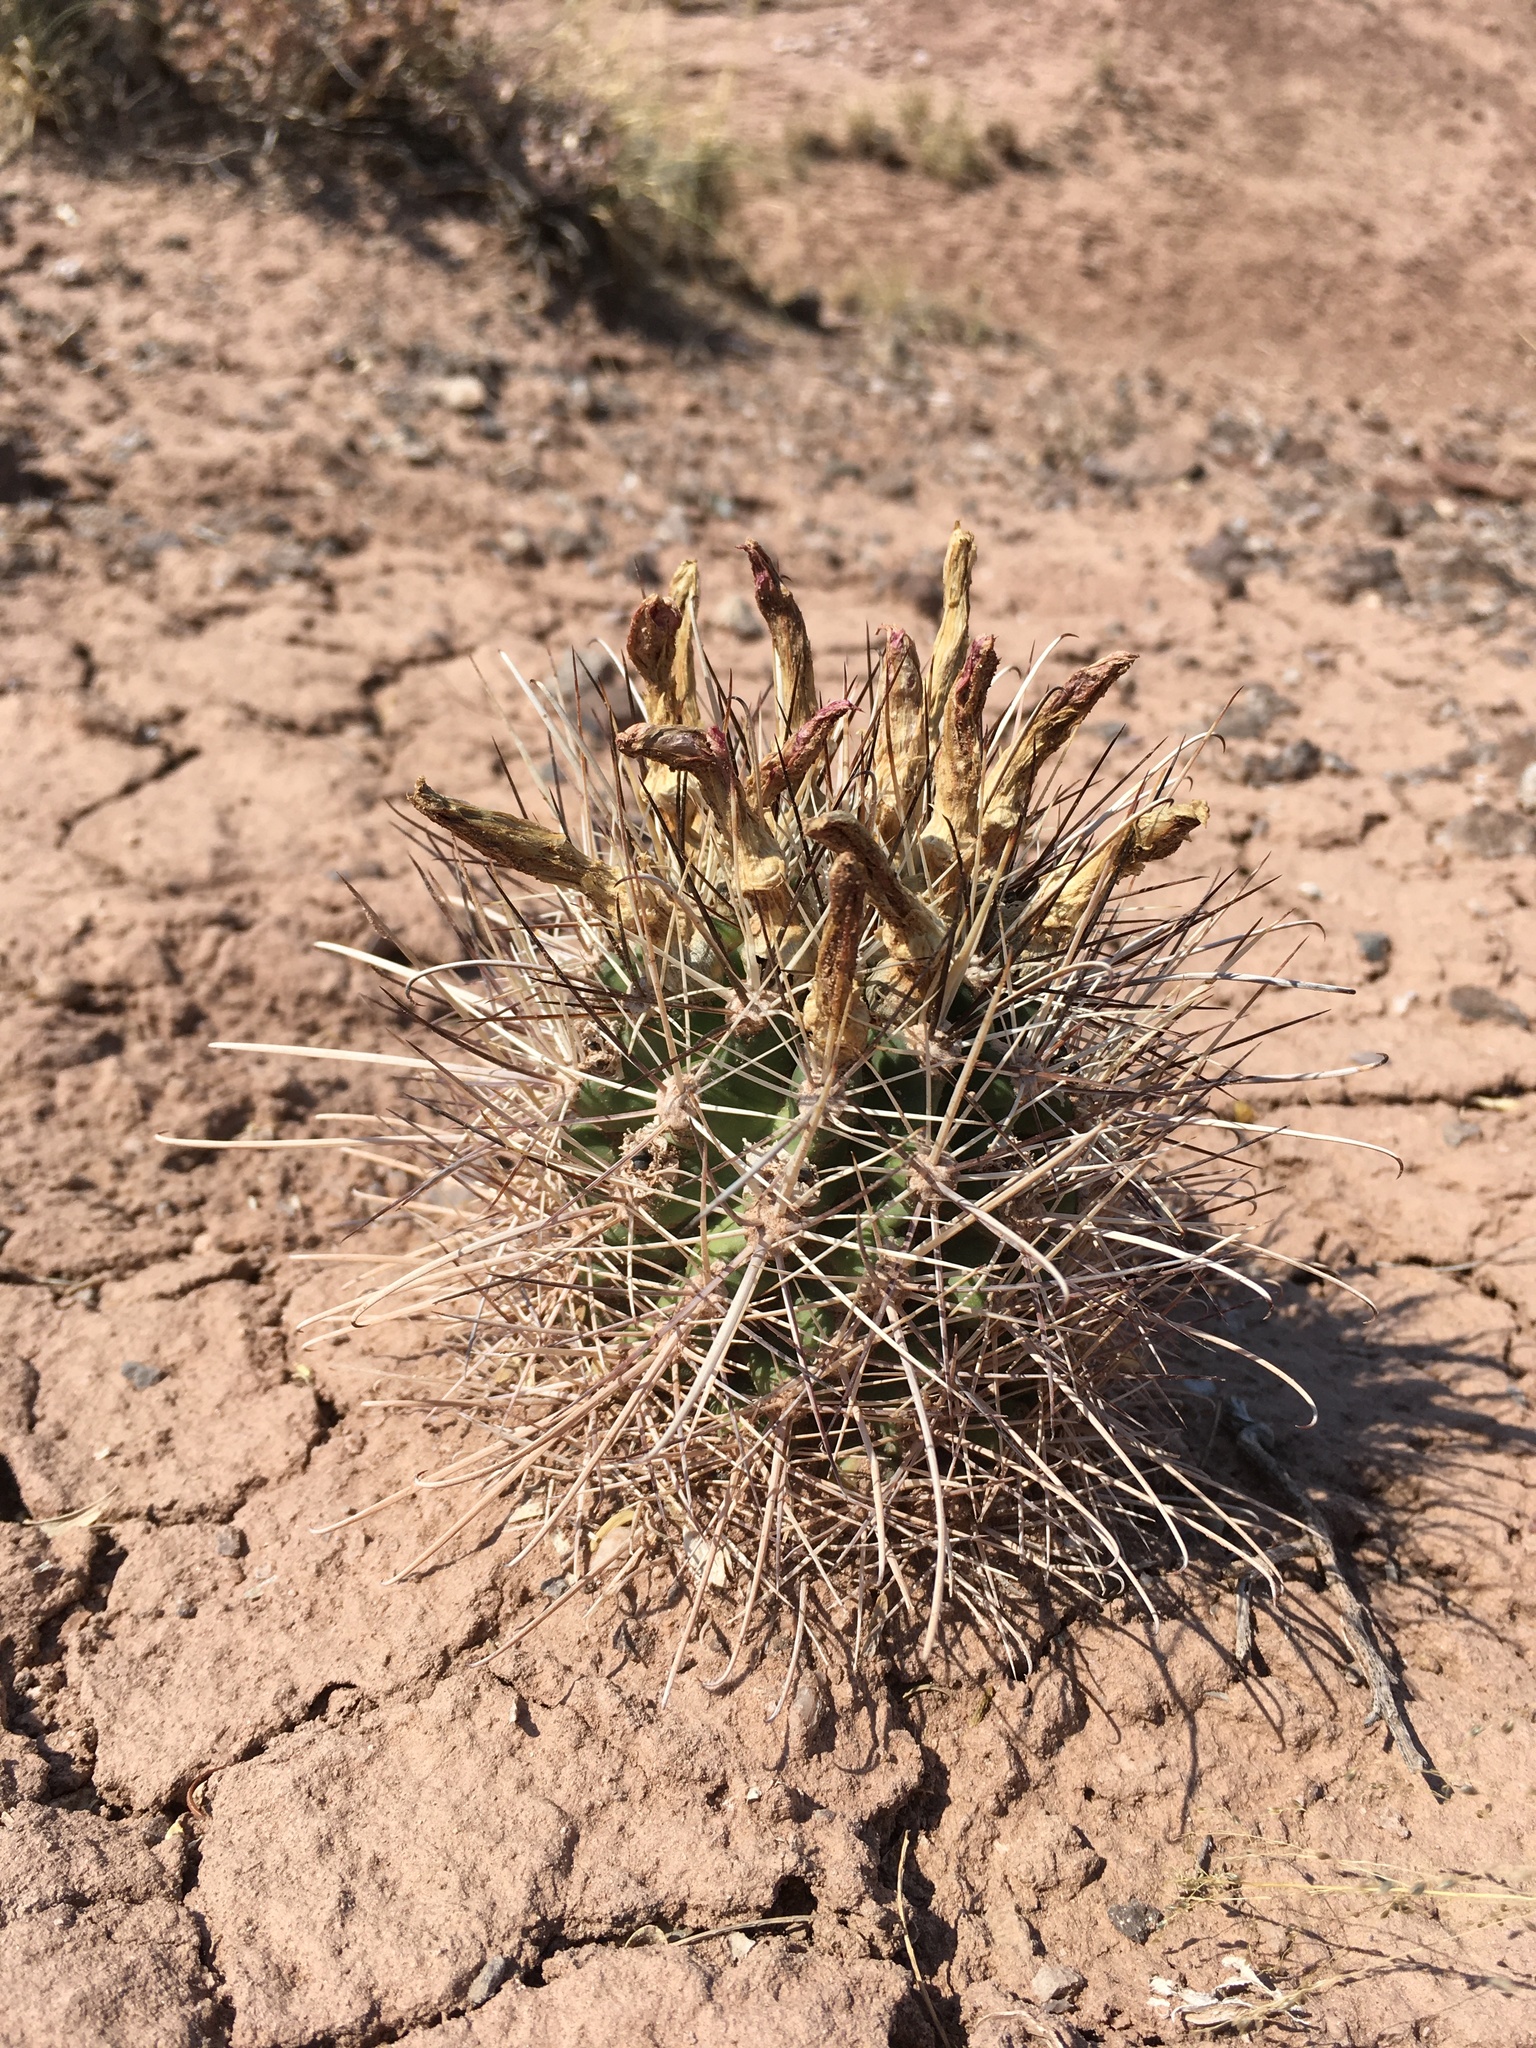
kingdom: Plantae
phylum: Tracheophyta
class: Magnoliopsida
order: Caryophyllales
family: Cactaceae
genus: Sclerocactus
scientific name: Sclerocactus parviflorus
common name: Small-flower fishhook cactus
